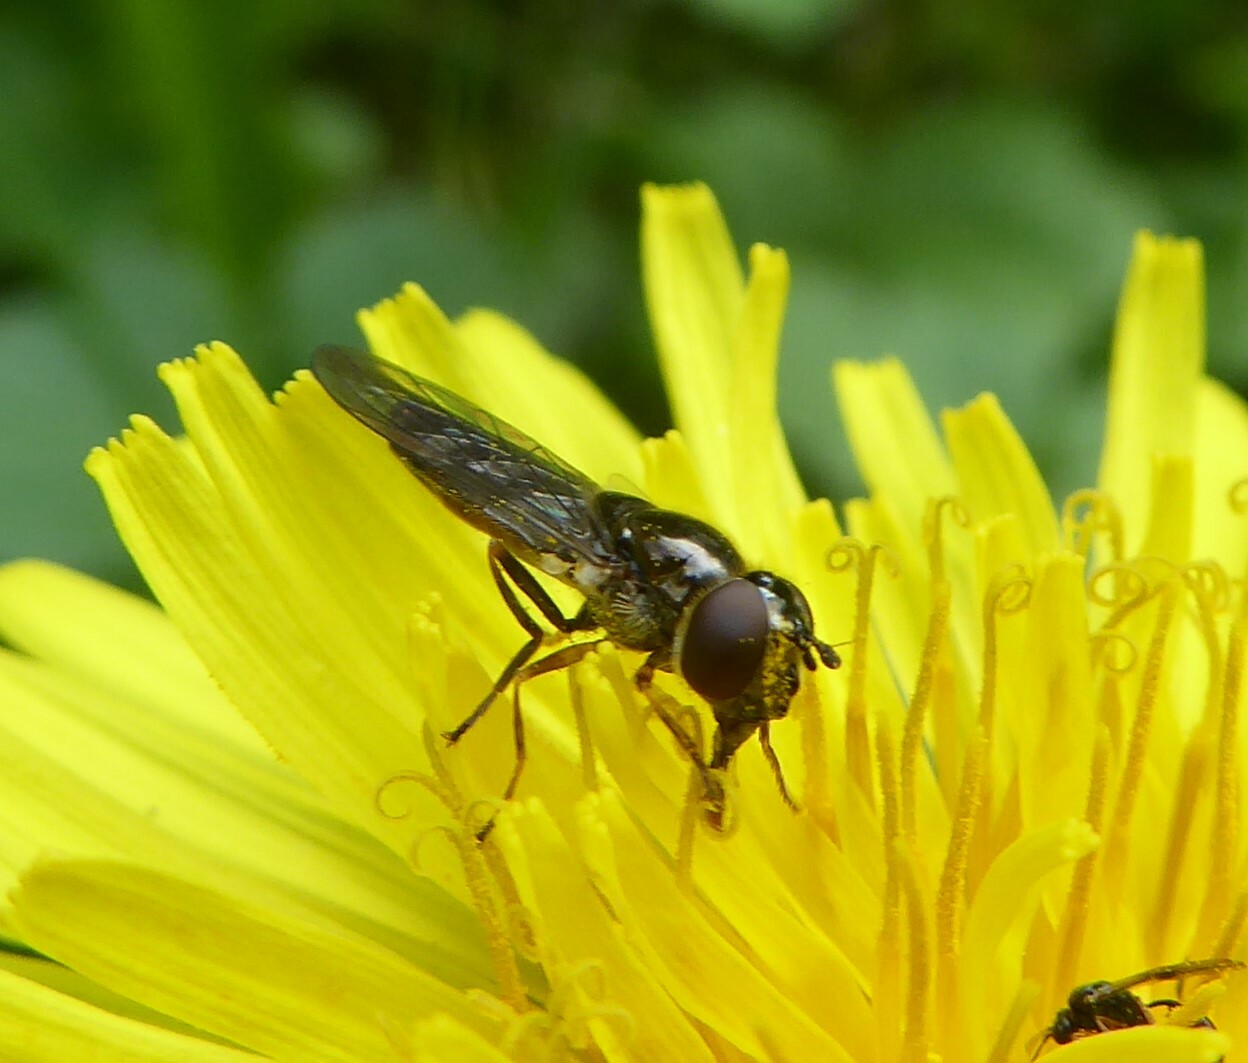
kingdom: Animalia
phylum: Arthropoda
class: Insecta
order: Diptera
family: Syrphidae
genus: Platycheirus
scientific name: Platycheirus albimanus
